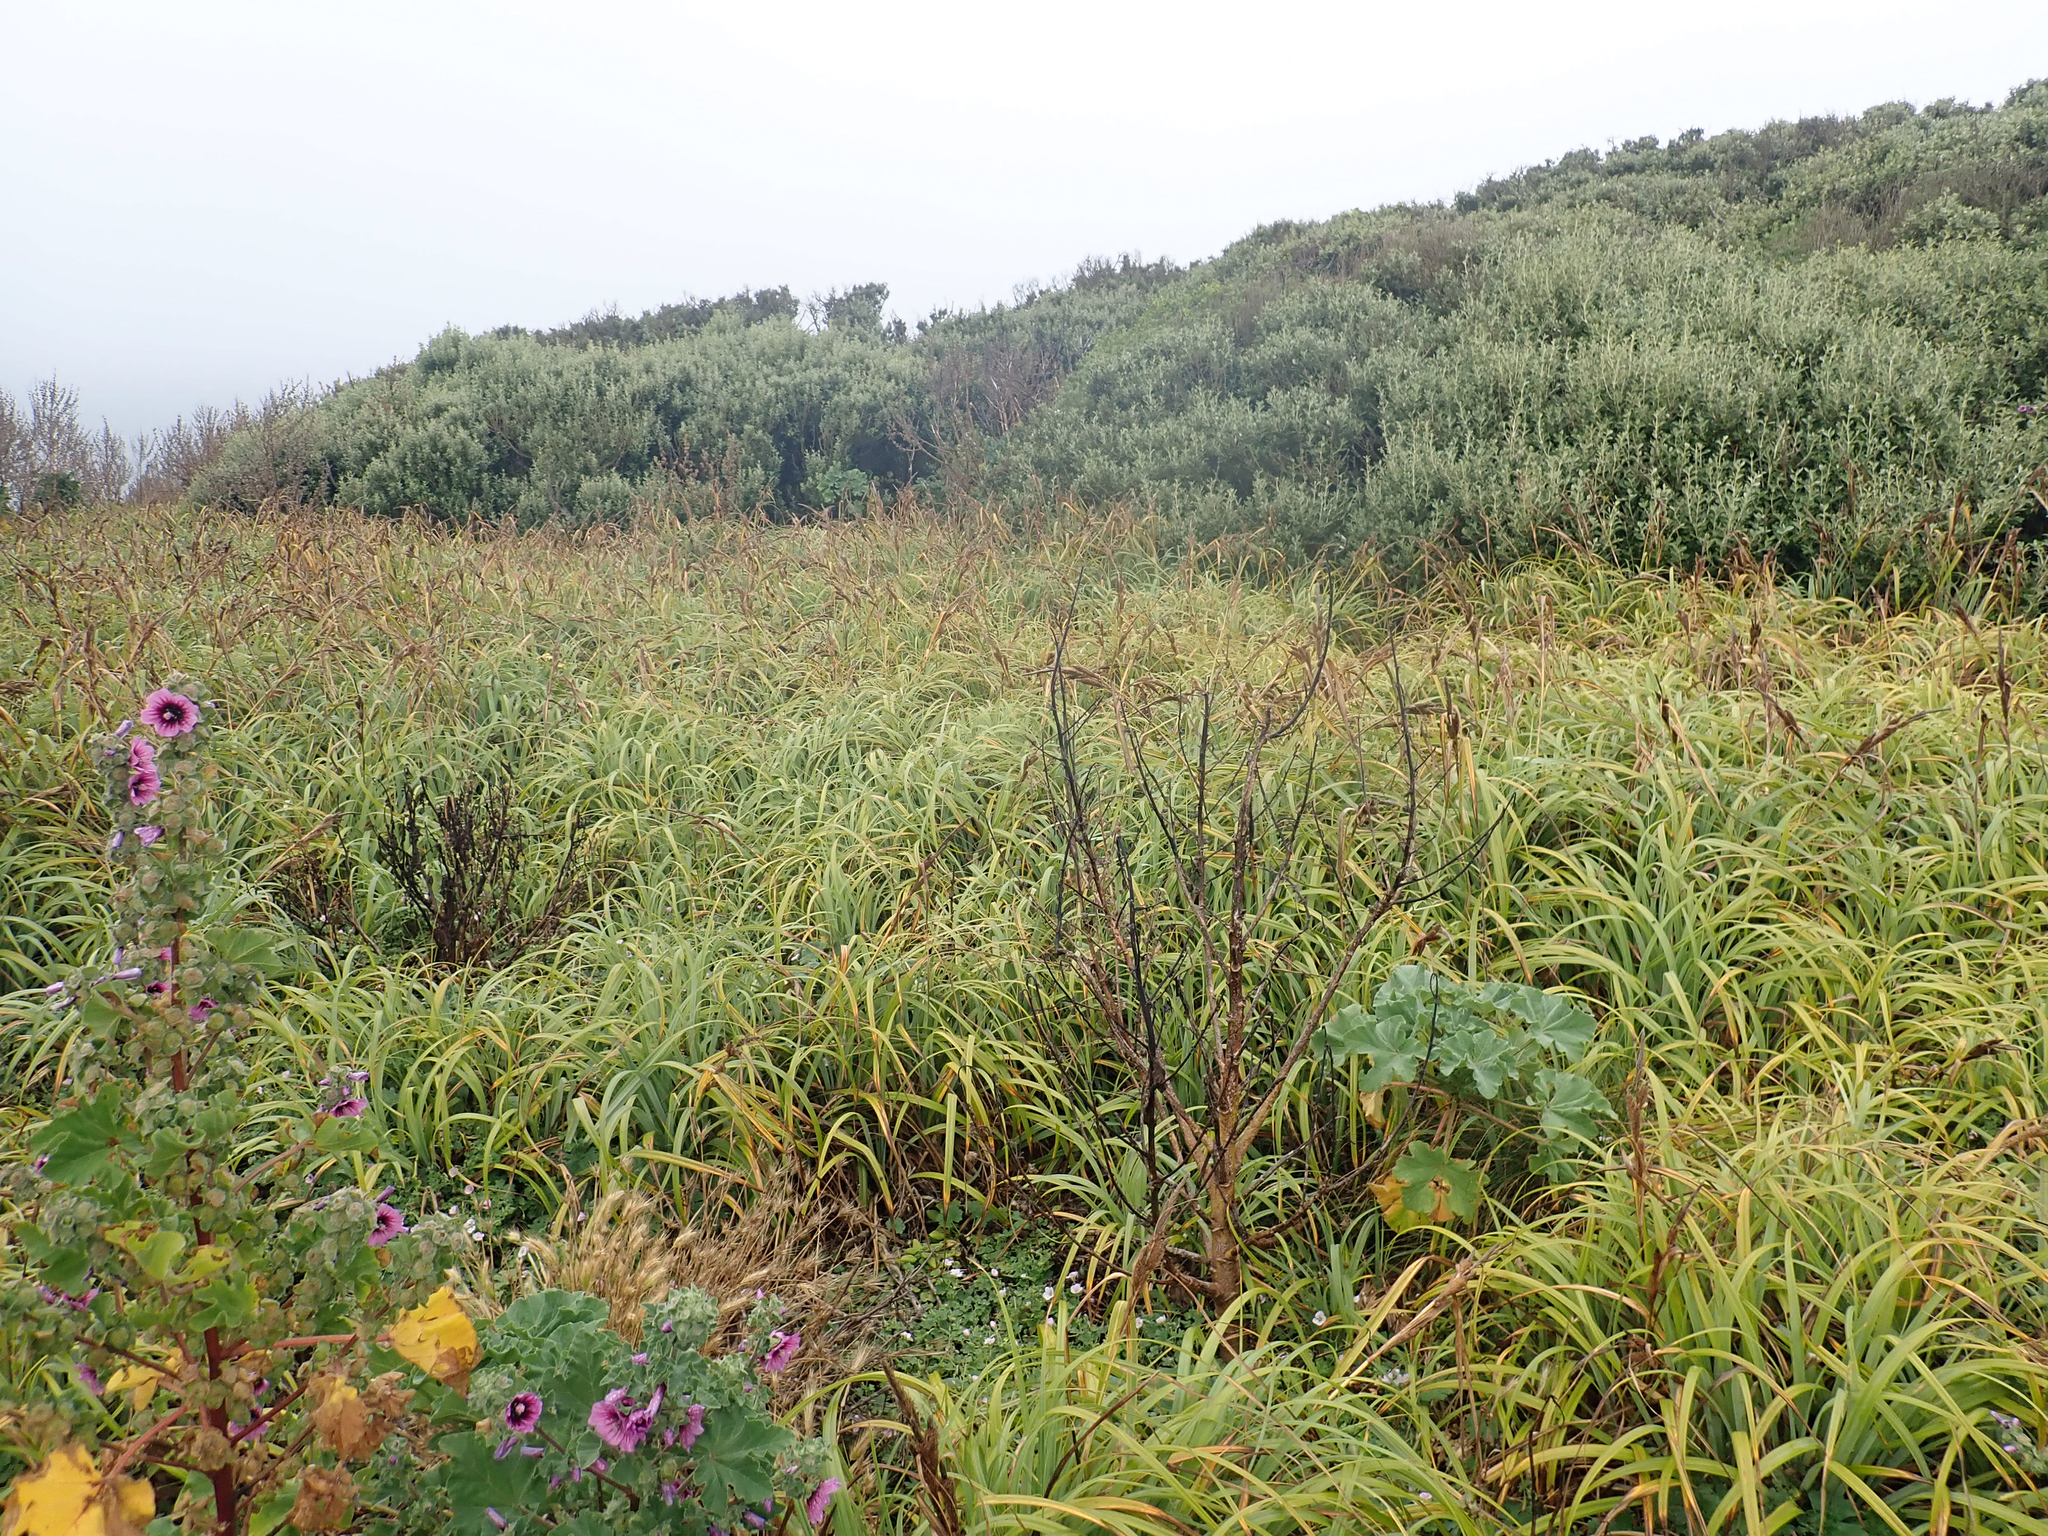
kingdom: Plantae
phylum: Tracheophyta
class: Liliopsida
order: Poales
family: Cyperaceae
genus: Carex
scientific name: Carex trifida
